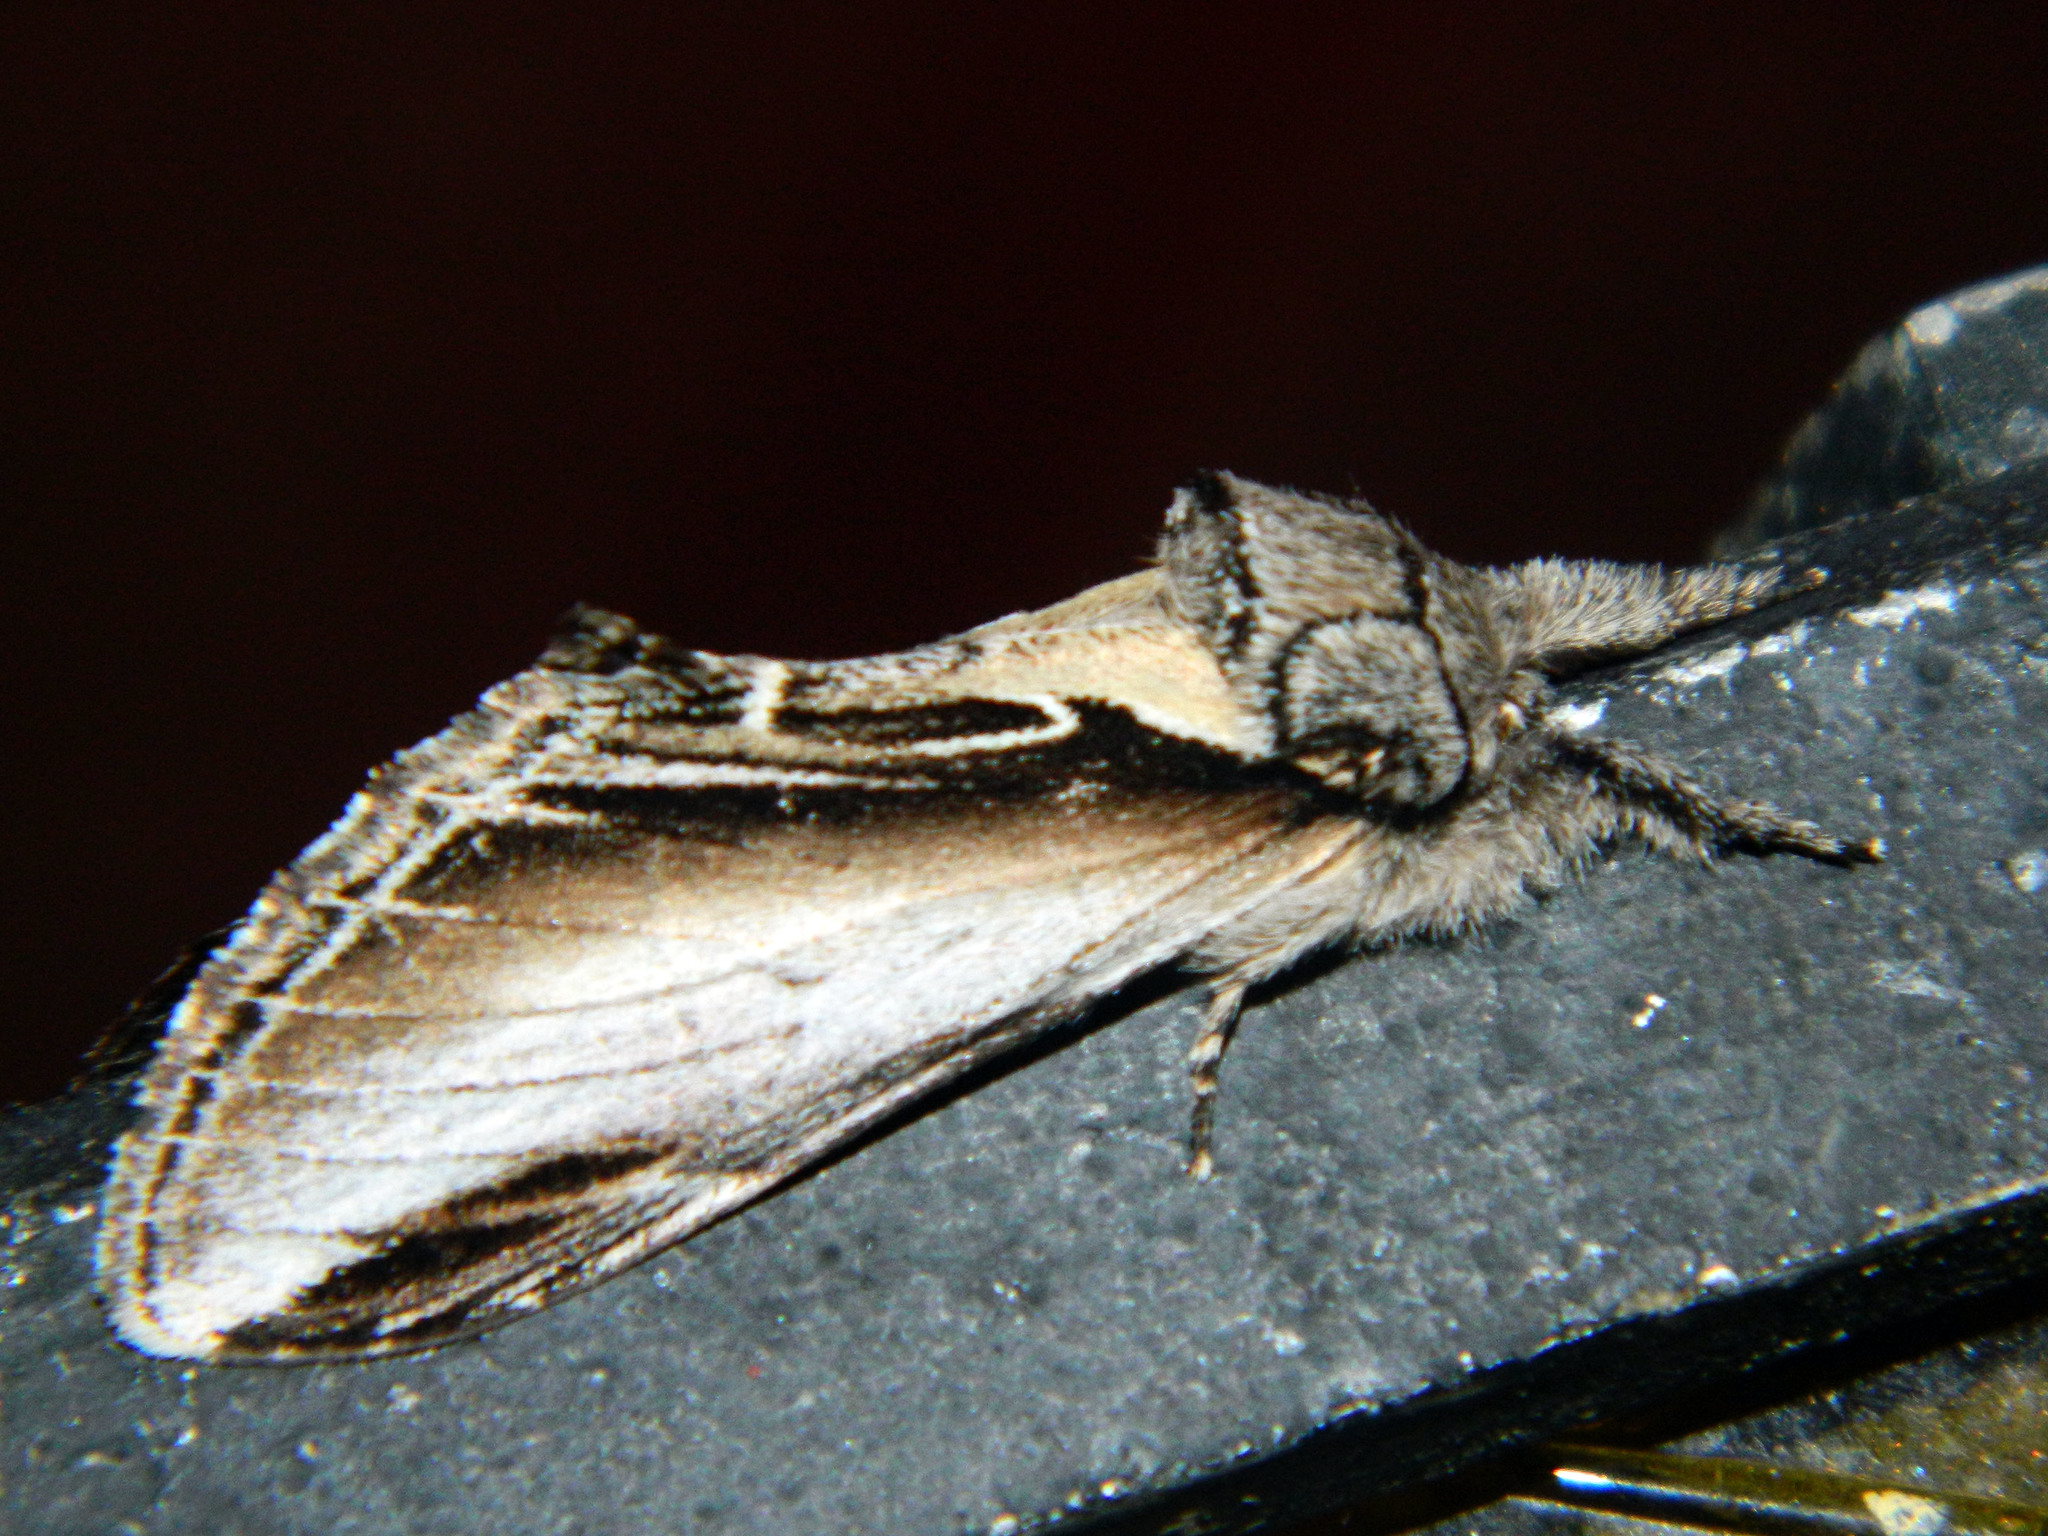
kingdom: Animalia
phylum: Arthropoda
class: Insecta
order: Lepidoptera
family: Notodontidae
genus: Pheosia
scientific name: Pheosia rimosa
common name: Black-rimmed prominent
